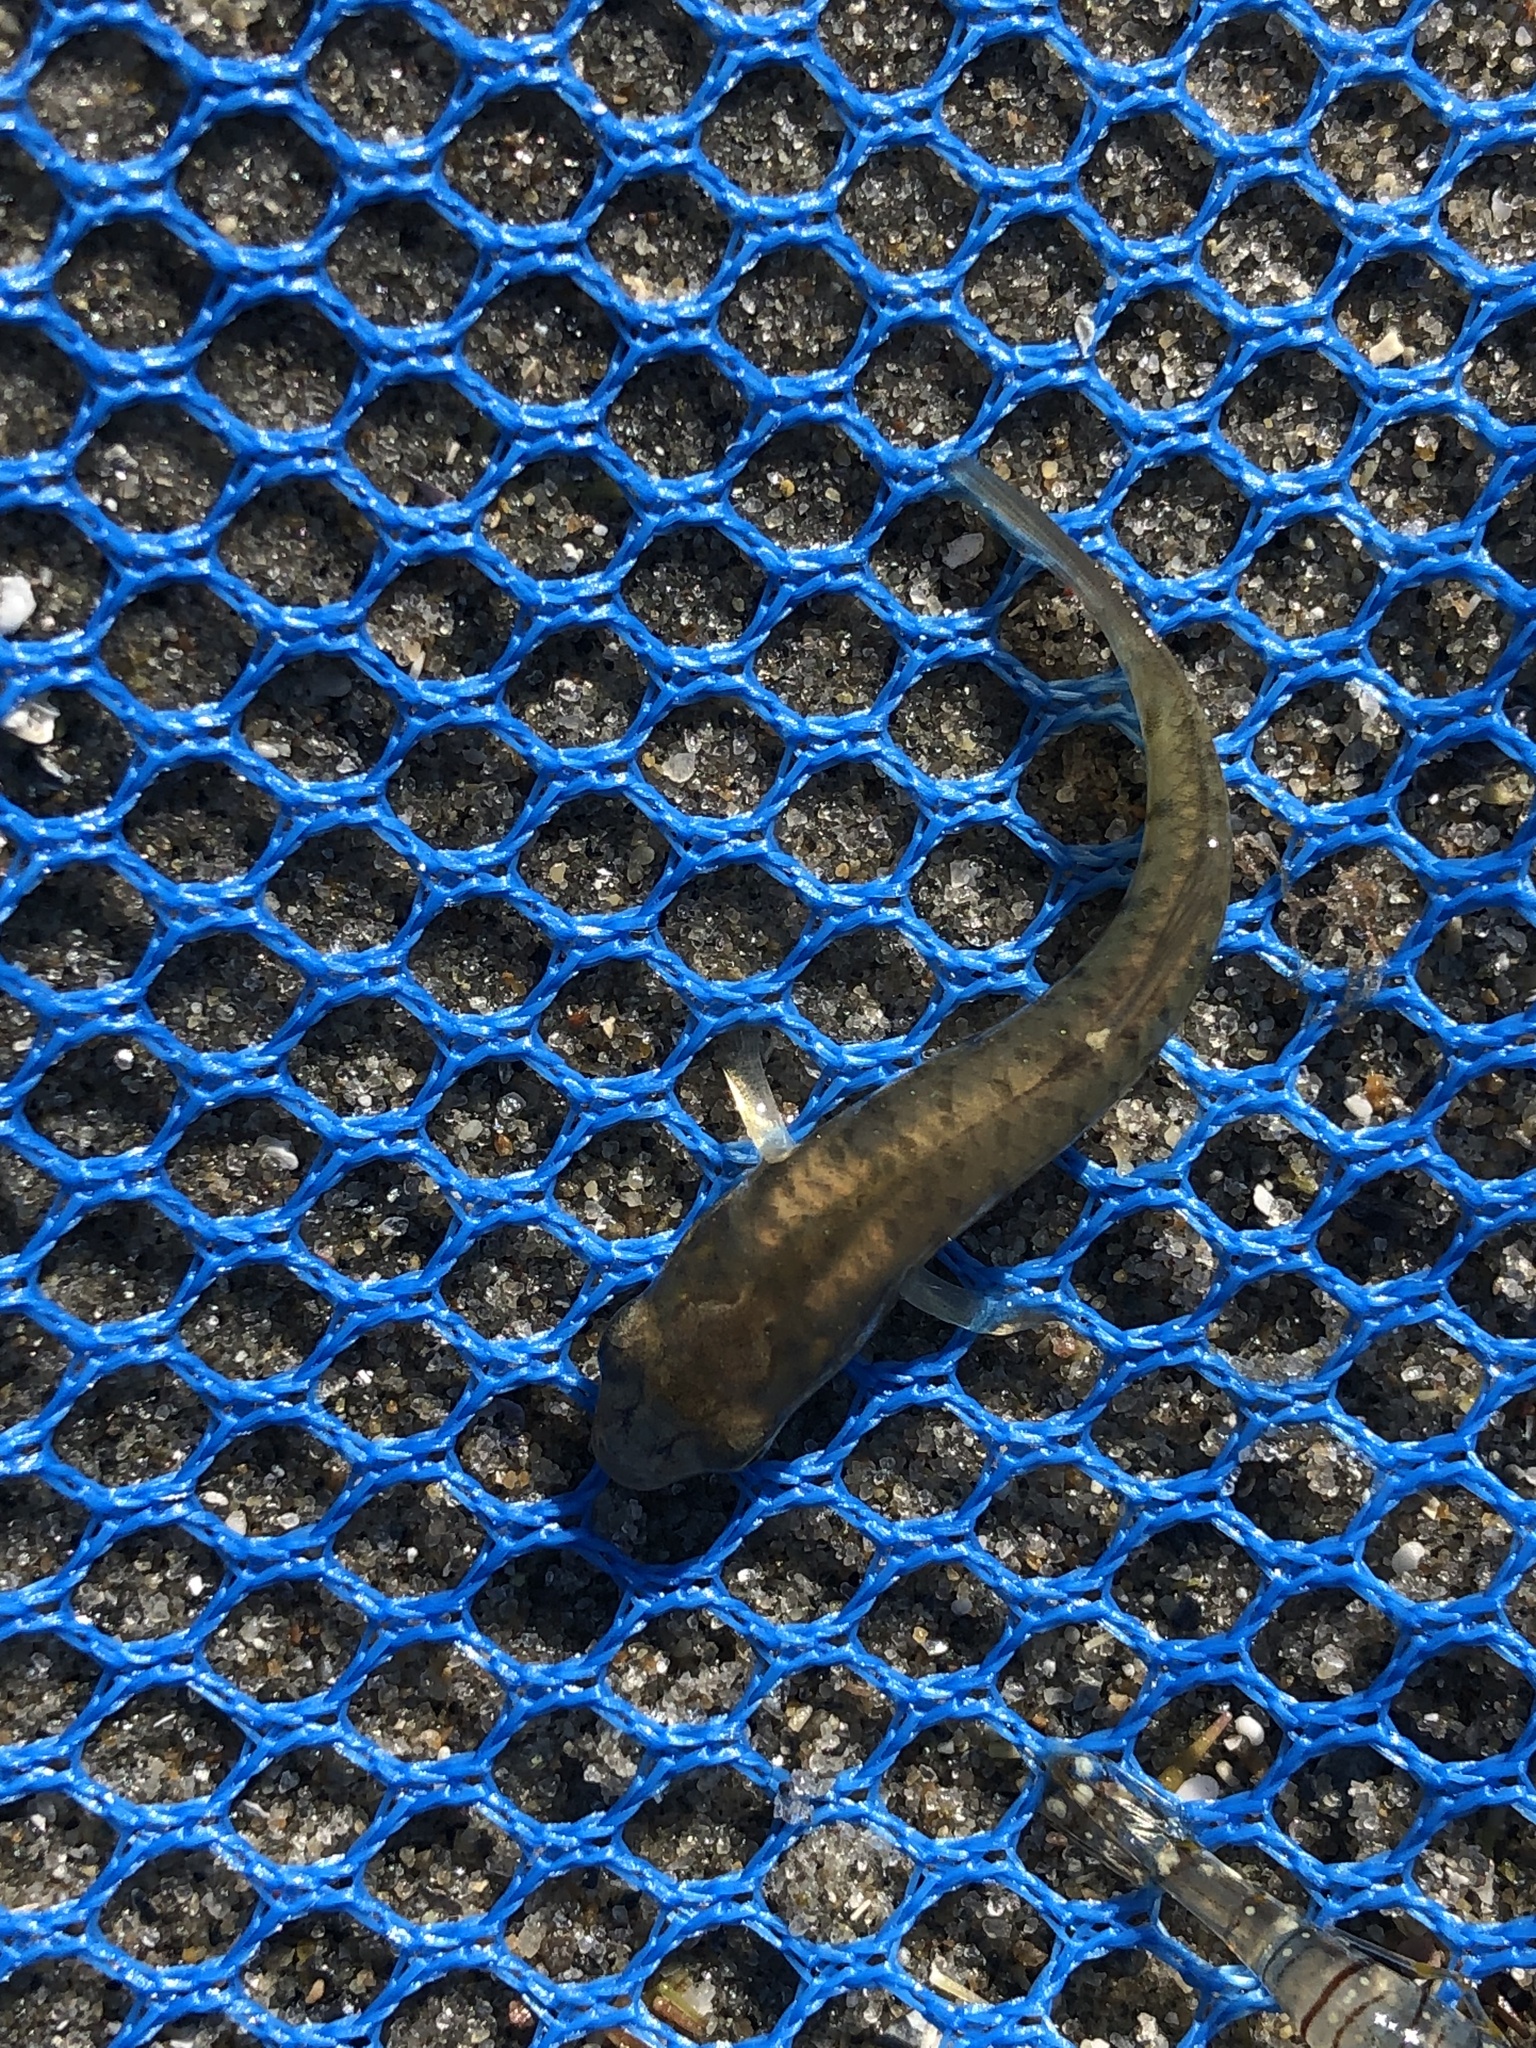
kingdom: Animalia
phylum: Chordata
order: Cyprinodontiformes
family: Fundulidae
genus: Fundulus
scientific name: Fundulus majalis
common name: Striped killifish
